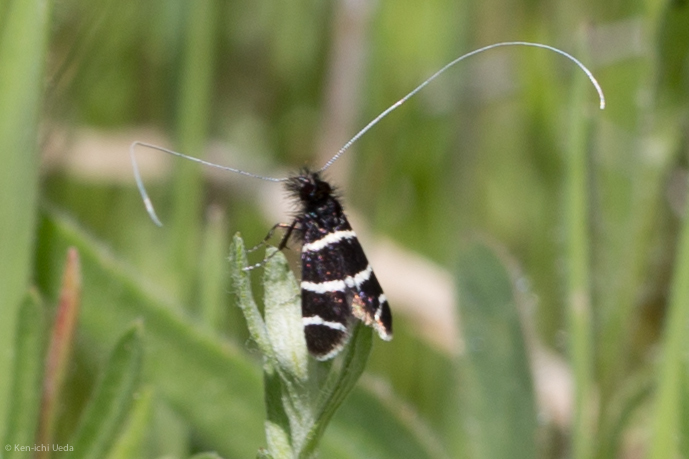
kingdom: Animalia
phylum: Arthropoda
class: Insecta
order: Lepidoptera
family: Adelidae
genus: Adela
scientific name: Adela trigrapha
